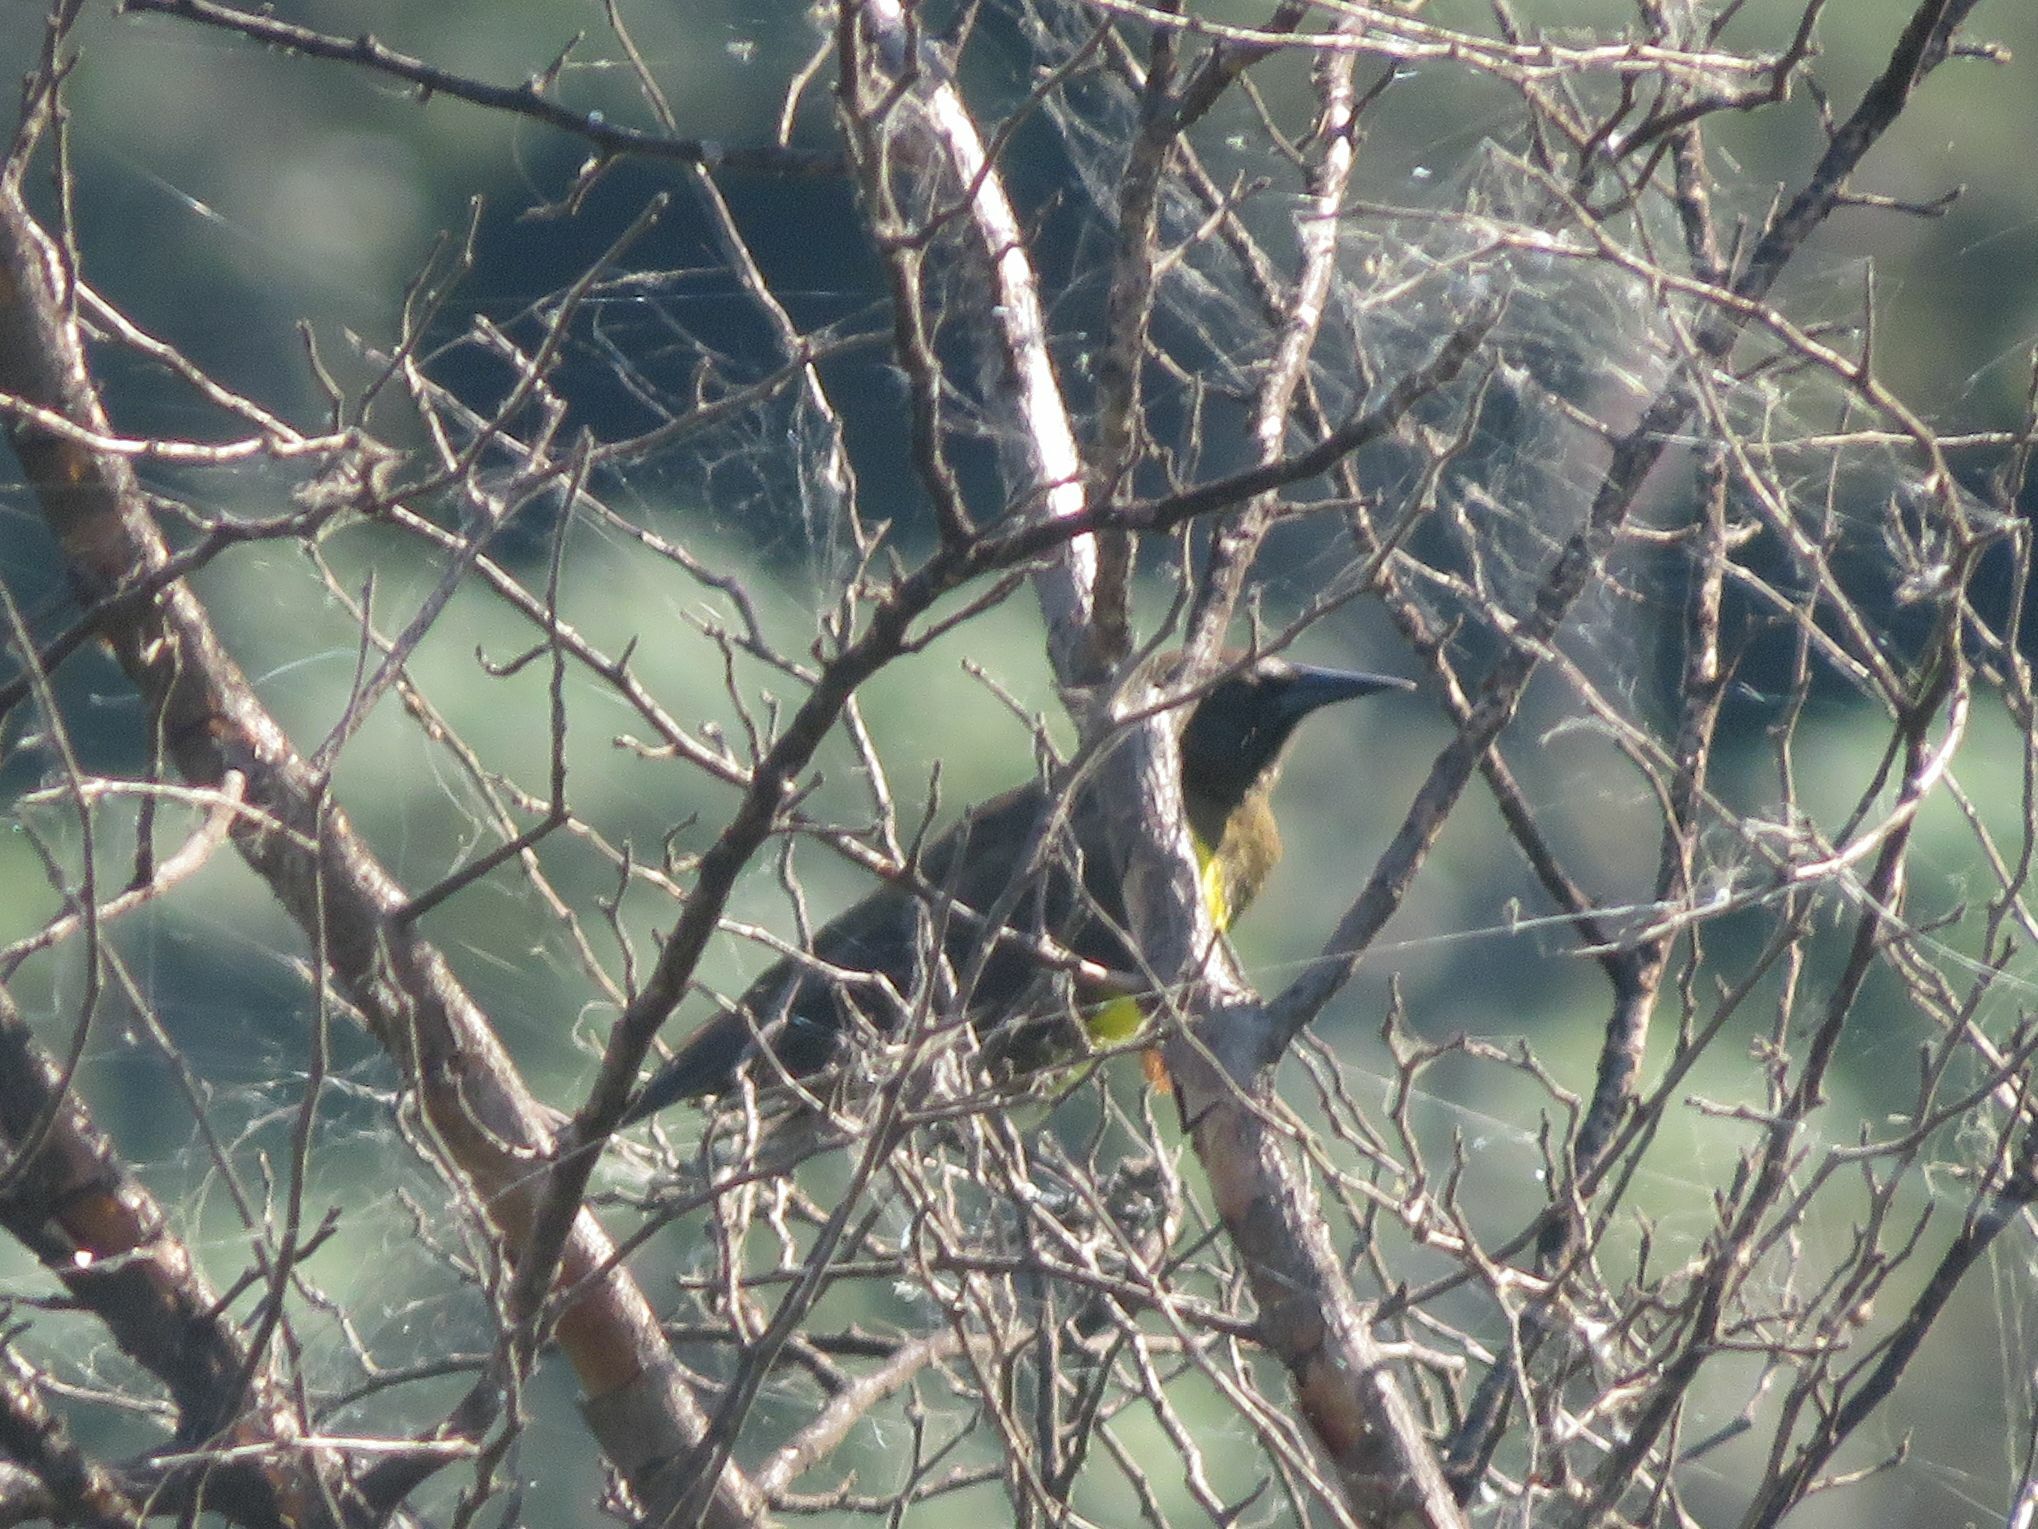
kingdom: Animalia
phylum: Chordata
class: Aves
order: Passeriformes
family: Icteridae
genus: Pseudoleistes
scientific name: Pseudoleistes virescens
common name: Brown-and-yellow marshbird
